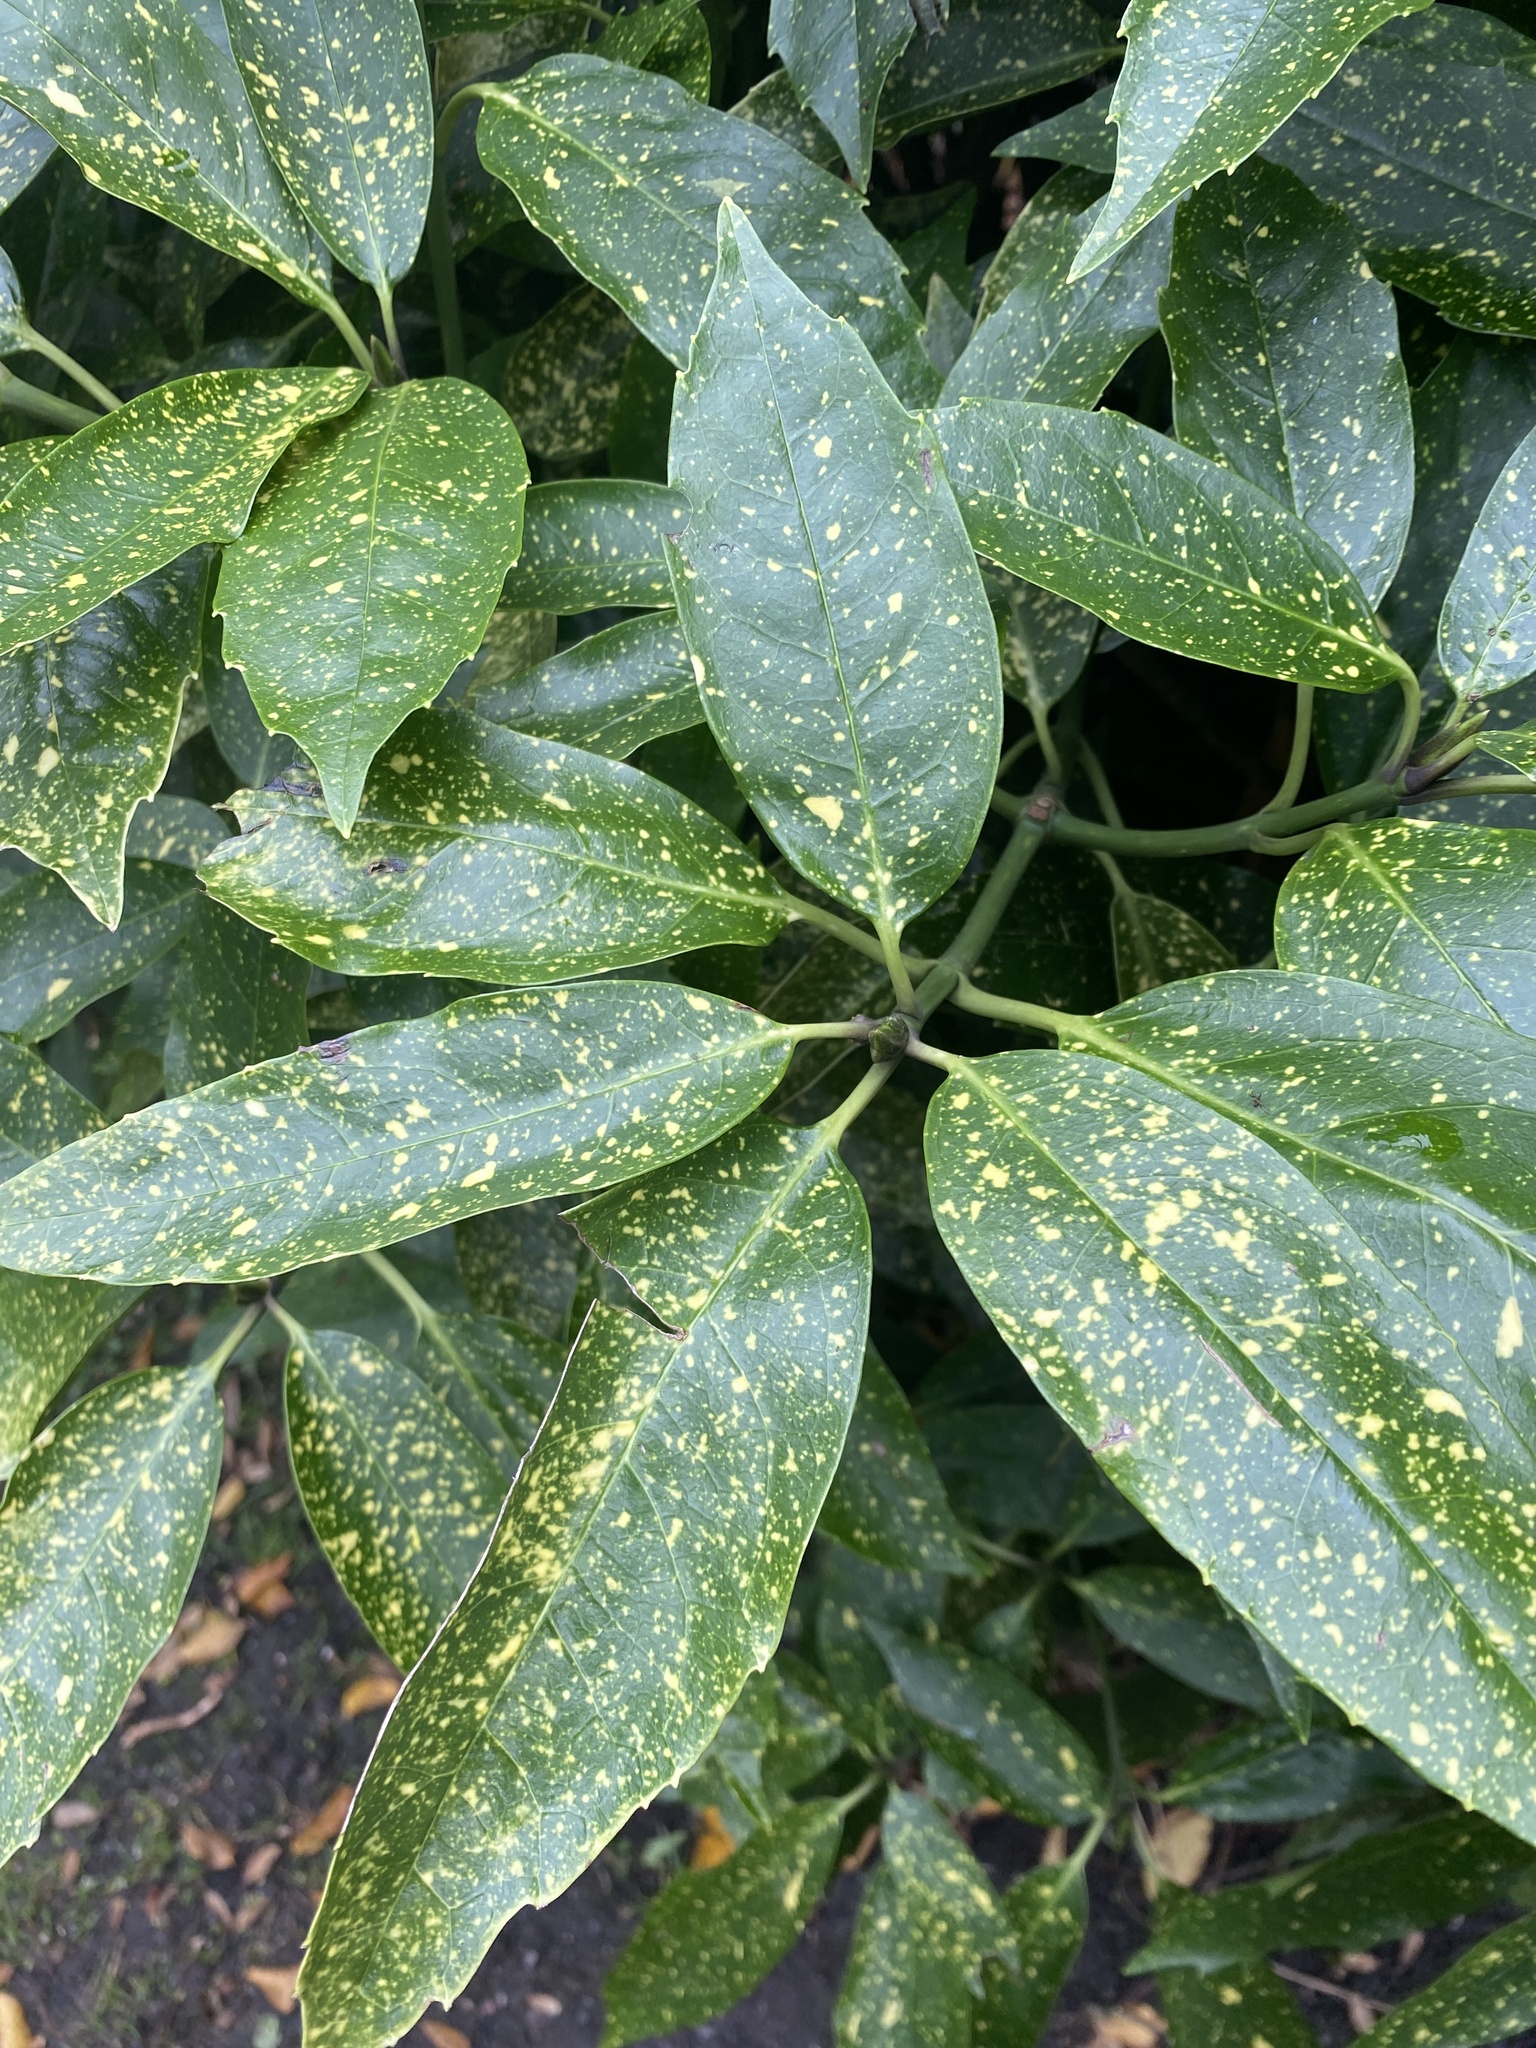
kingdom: Plantae
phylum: Tracheophyta
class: Magnoliopsida
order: Garryales
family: Garryaceae
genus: Aucuba
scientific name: Aucuba japonica
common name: Spotted-laurel
